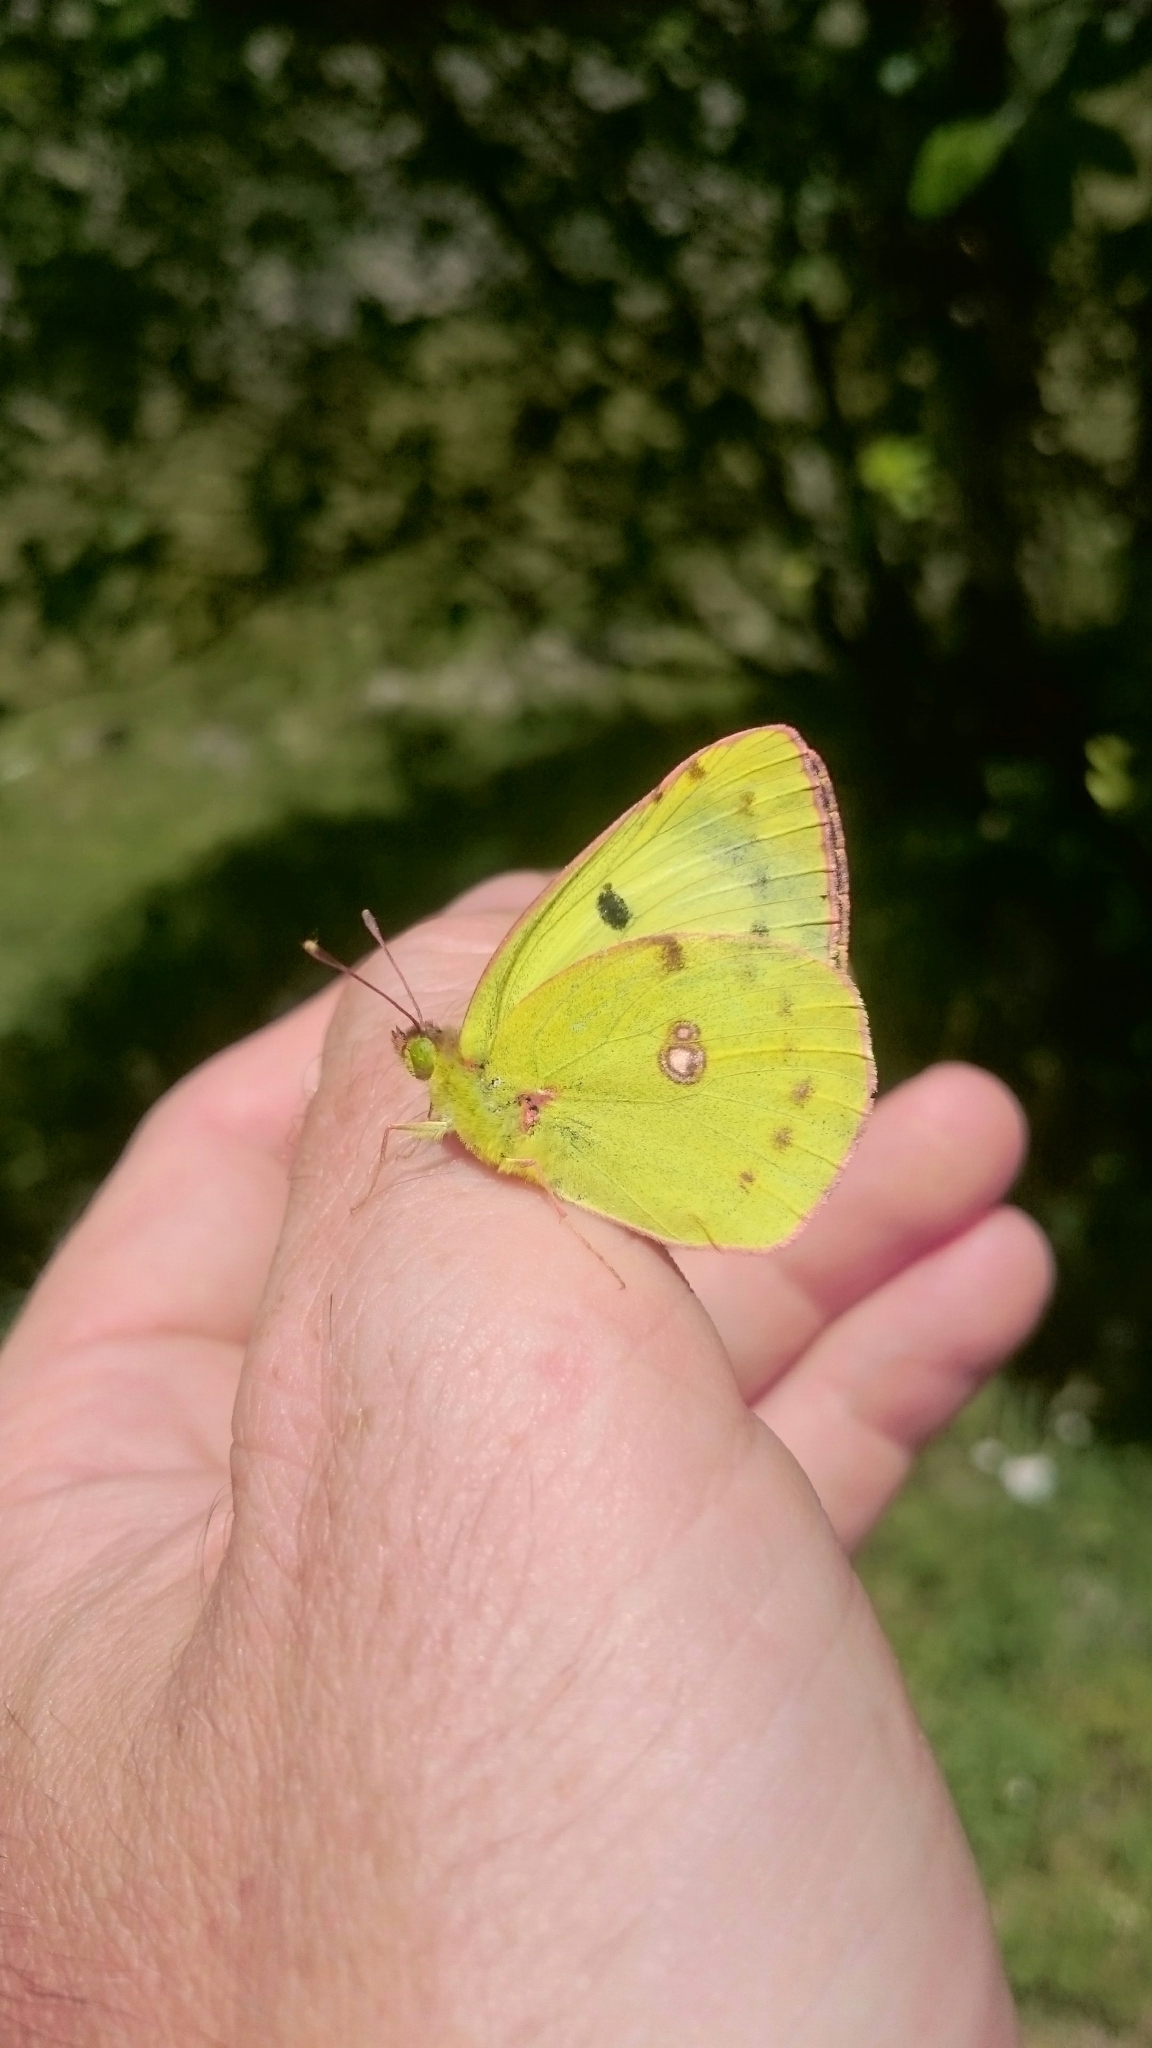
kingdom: Animalia
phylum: Arthropoda
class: Insecta
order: Lepidoptera
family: Pieridae
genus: Colias
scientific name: Colias alfacariensis
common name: Berger's clouded yellow
